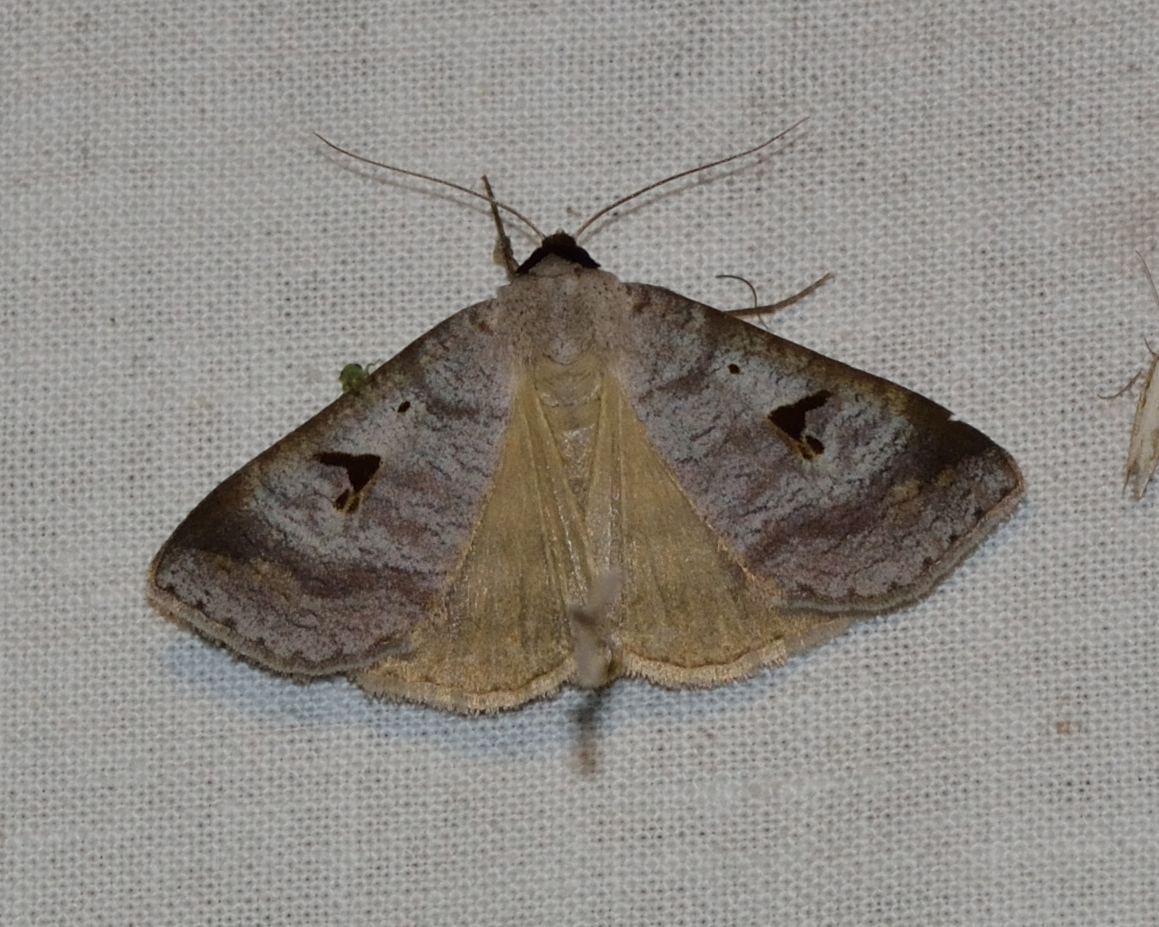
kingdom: Animalia
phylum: Arthropoda
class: Insecta
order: Lepidoptera
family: Erebidae
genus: Lygephila
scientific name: Lygephila pastinum
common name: Blackneck
